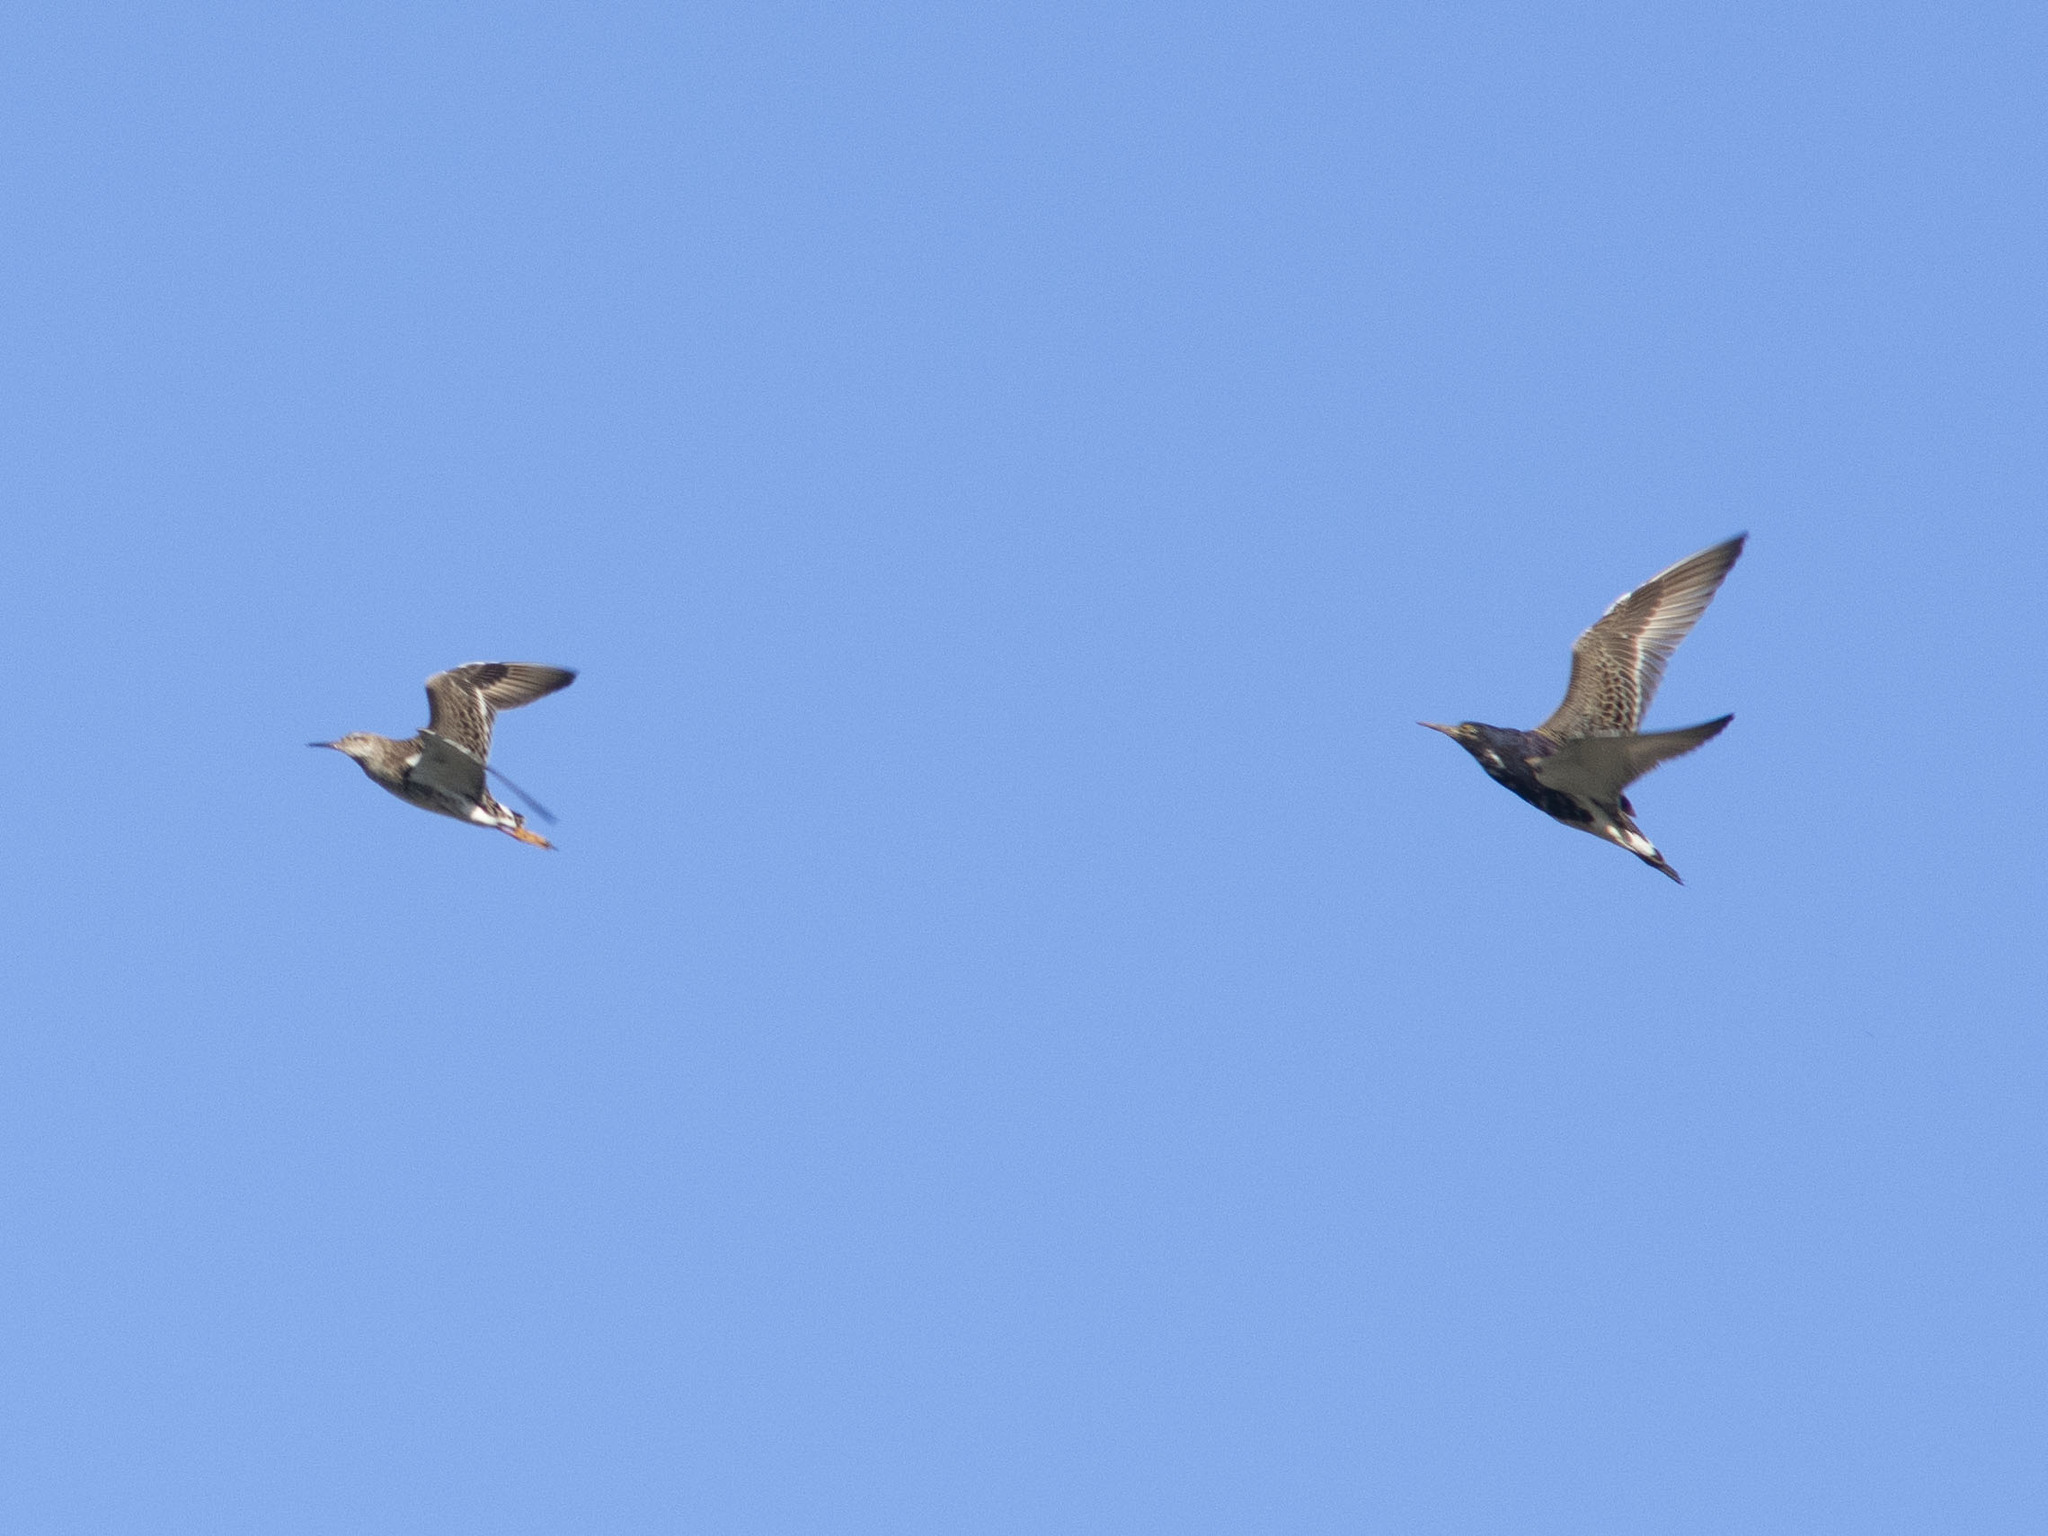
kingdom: Animalia
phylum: Chordata
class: Aves
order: Charadriiformes
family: Scolopacidae
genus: Calidris
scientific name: Calidris pugnax
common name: Ruff
